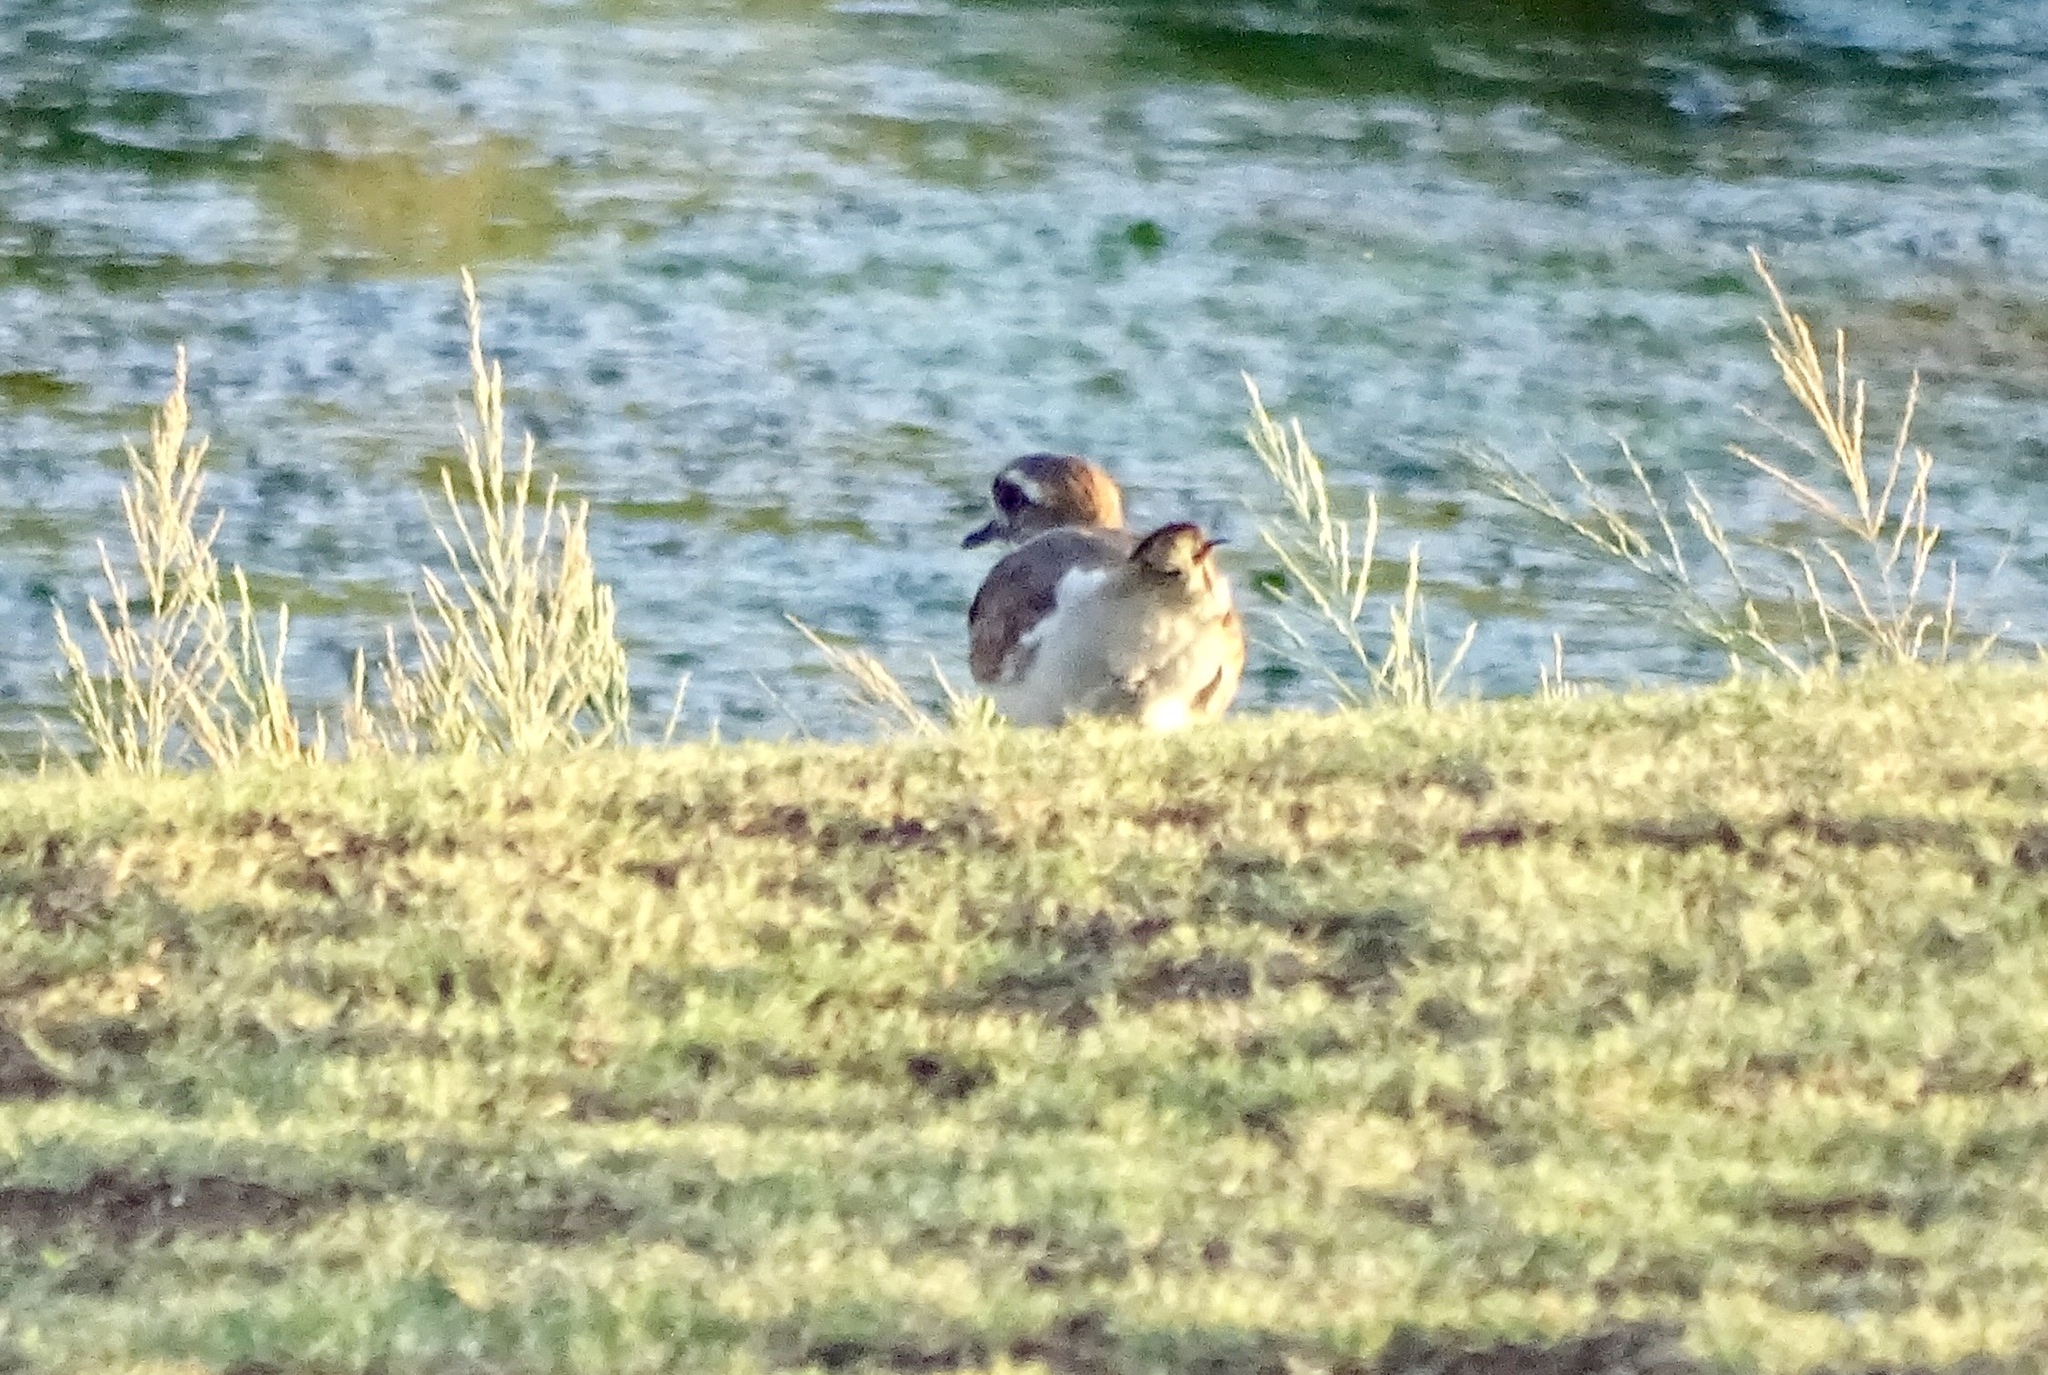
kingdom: Animalia
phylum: Chordata
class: Aves
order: Charadriiformes
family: Charadriidae
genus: Charadrius
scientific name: Charadrius vociferus
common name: Killdeer
